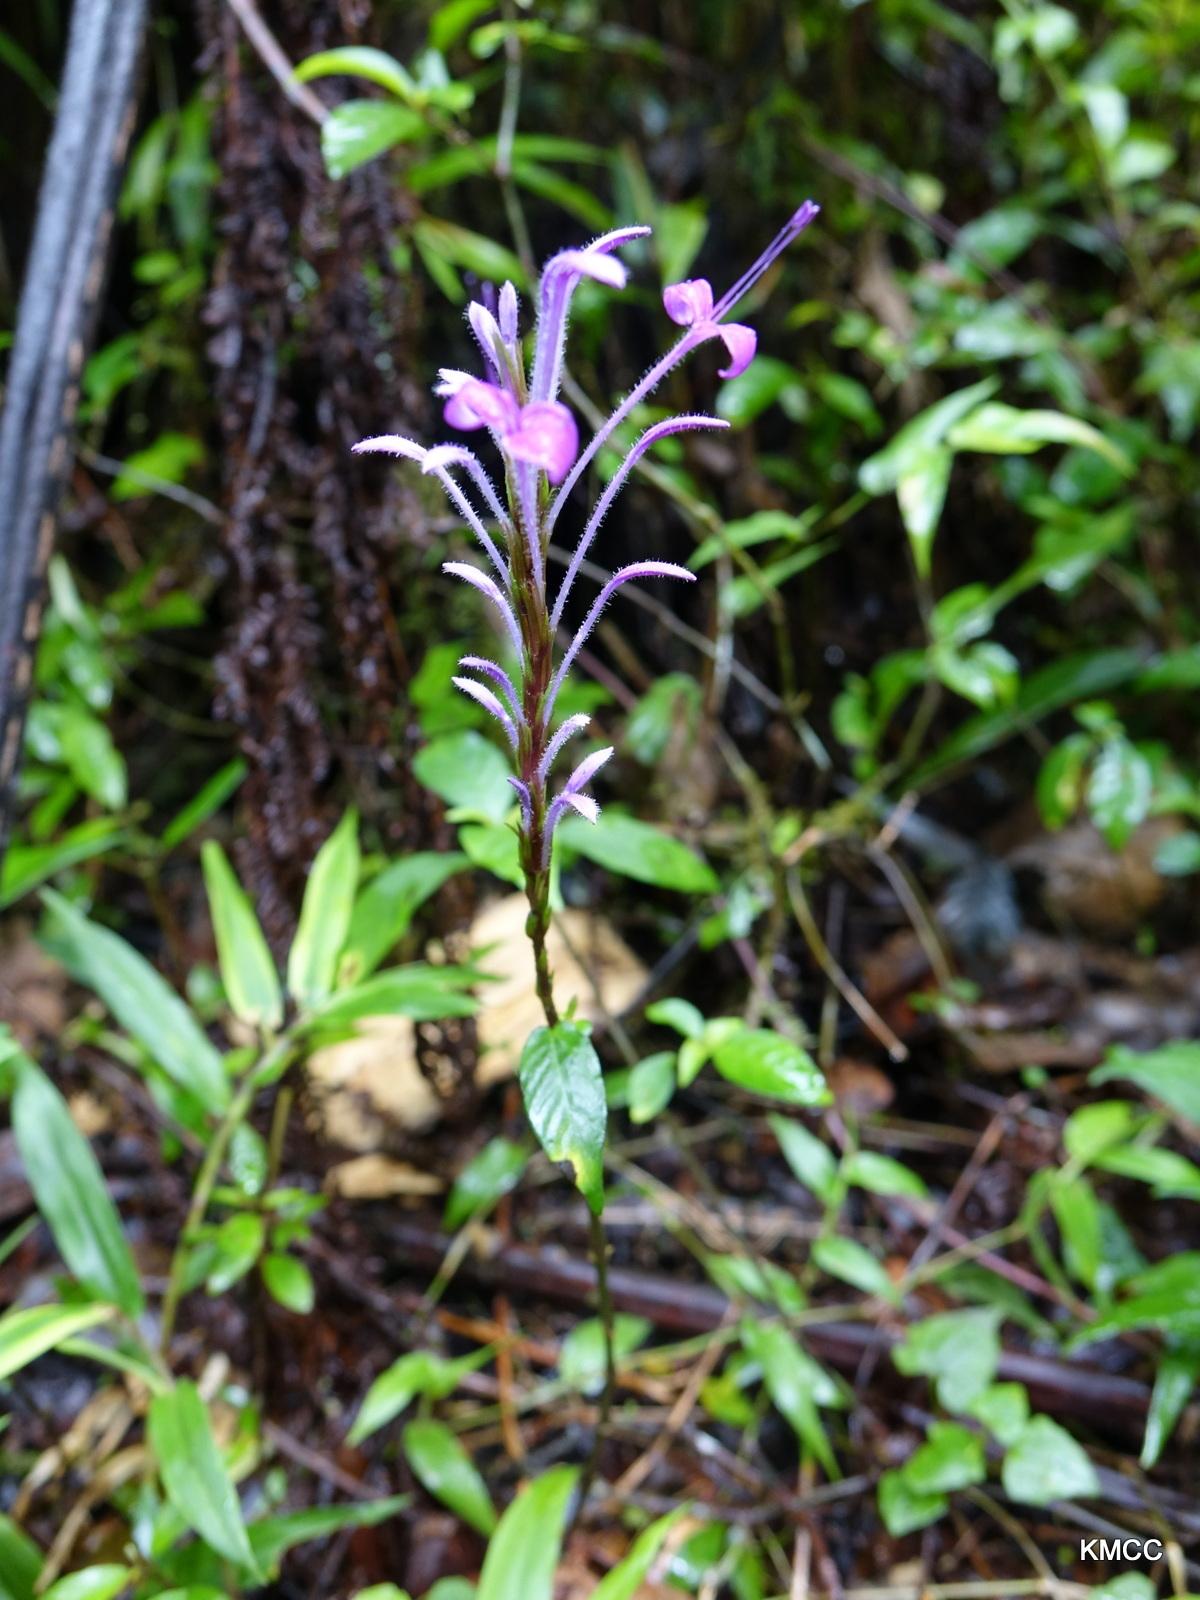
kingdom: Plantae
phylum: Tracheophyta
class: Magnoliopsida
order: Lamiales
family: Acanthaceae
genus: Brachystephanus
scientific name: Brachystephanus lyallii
